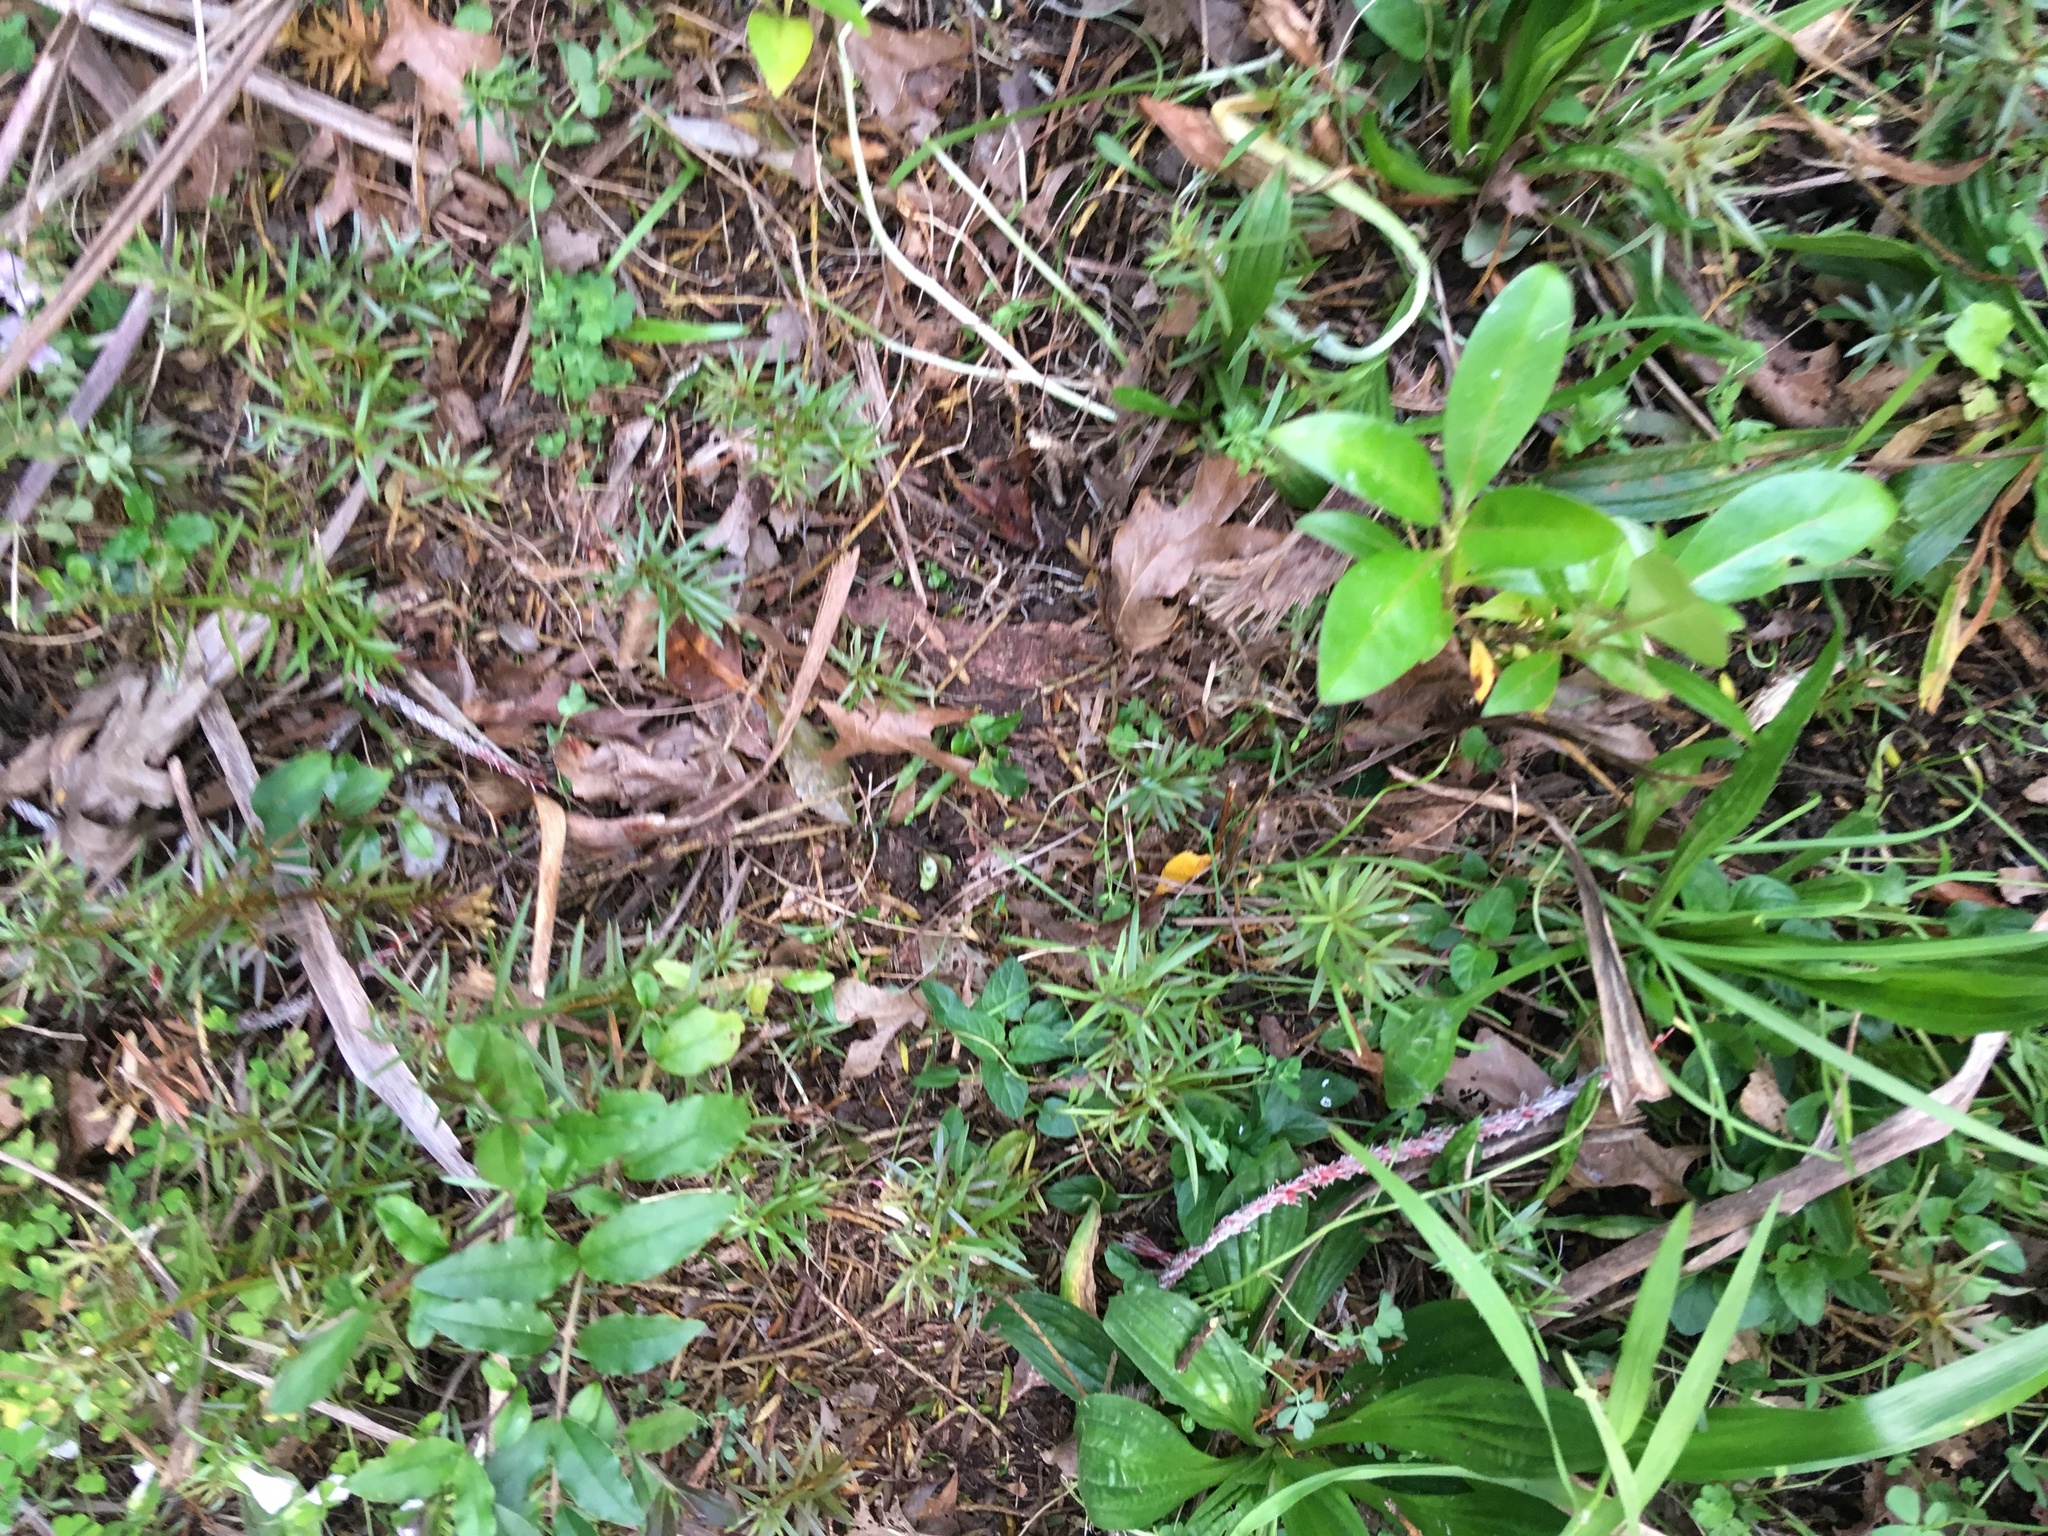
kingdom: Plantae
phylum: Tracheophyta
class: Pinopsida
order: Pinales
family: Podocarpaceae
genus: Podocarpus
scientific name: Podocarpus totara
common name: Totara
